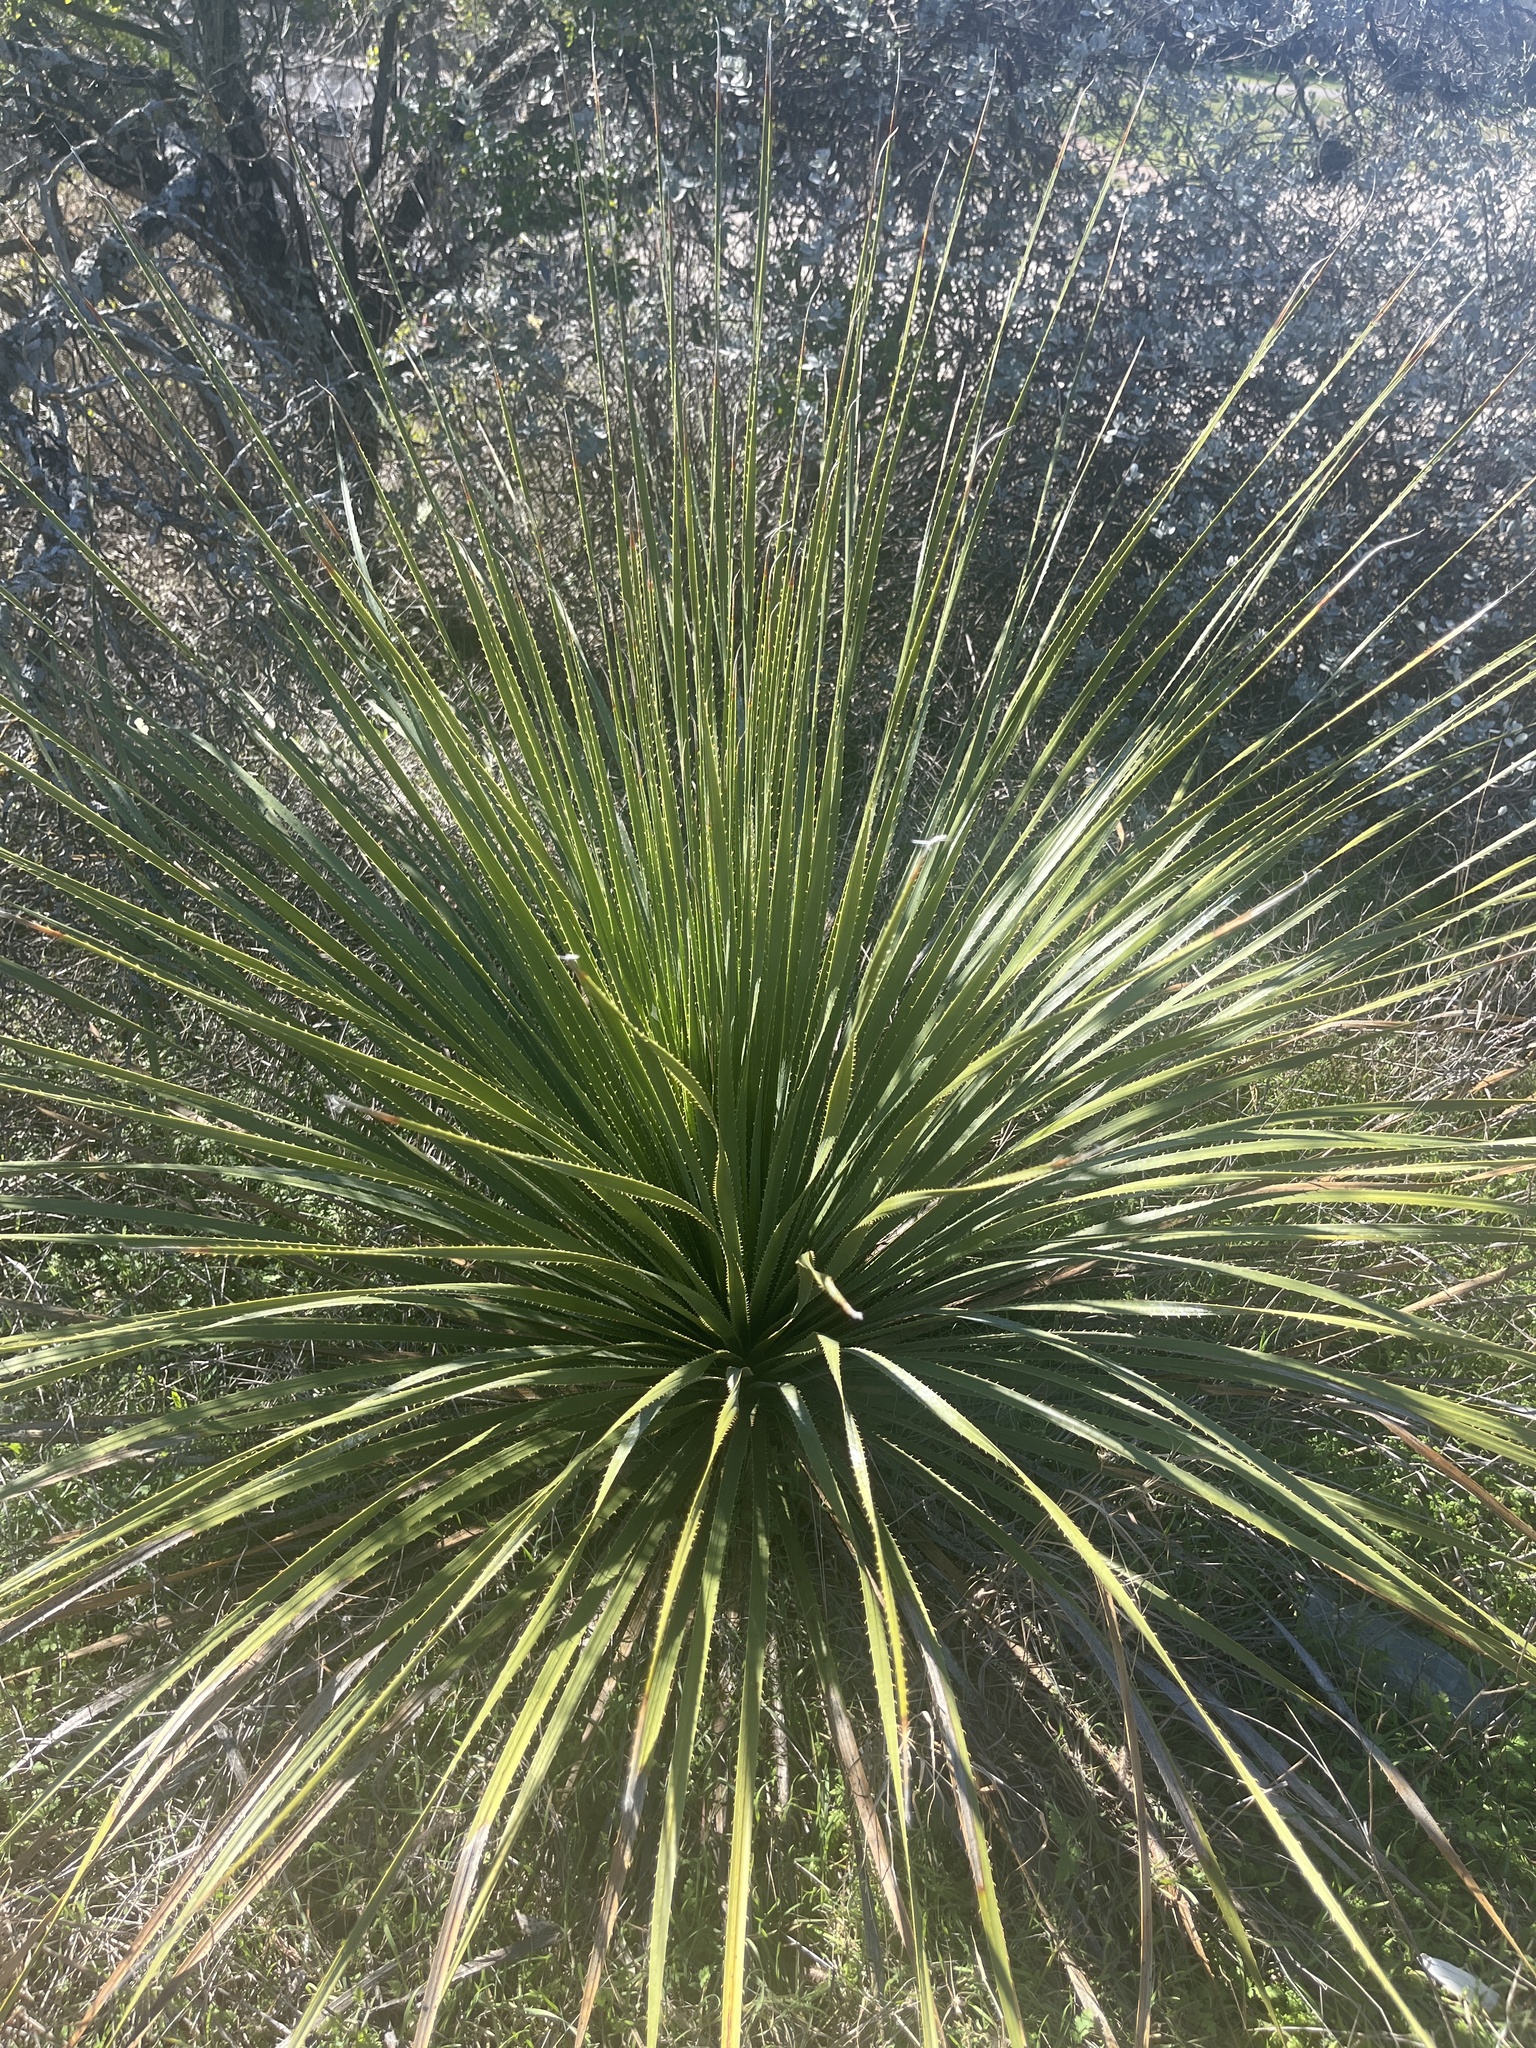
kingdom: Plantae
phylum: Tracheophyta
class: Liliopsida
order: Asparagales
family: Asparagaceae
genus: Dasylirion
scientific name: Dasylirion texanum
